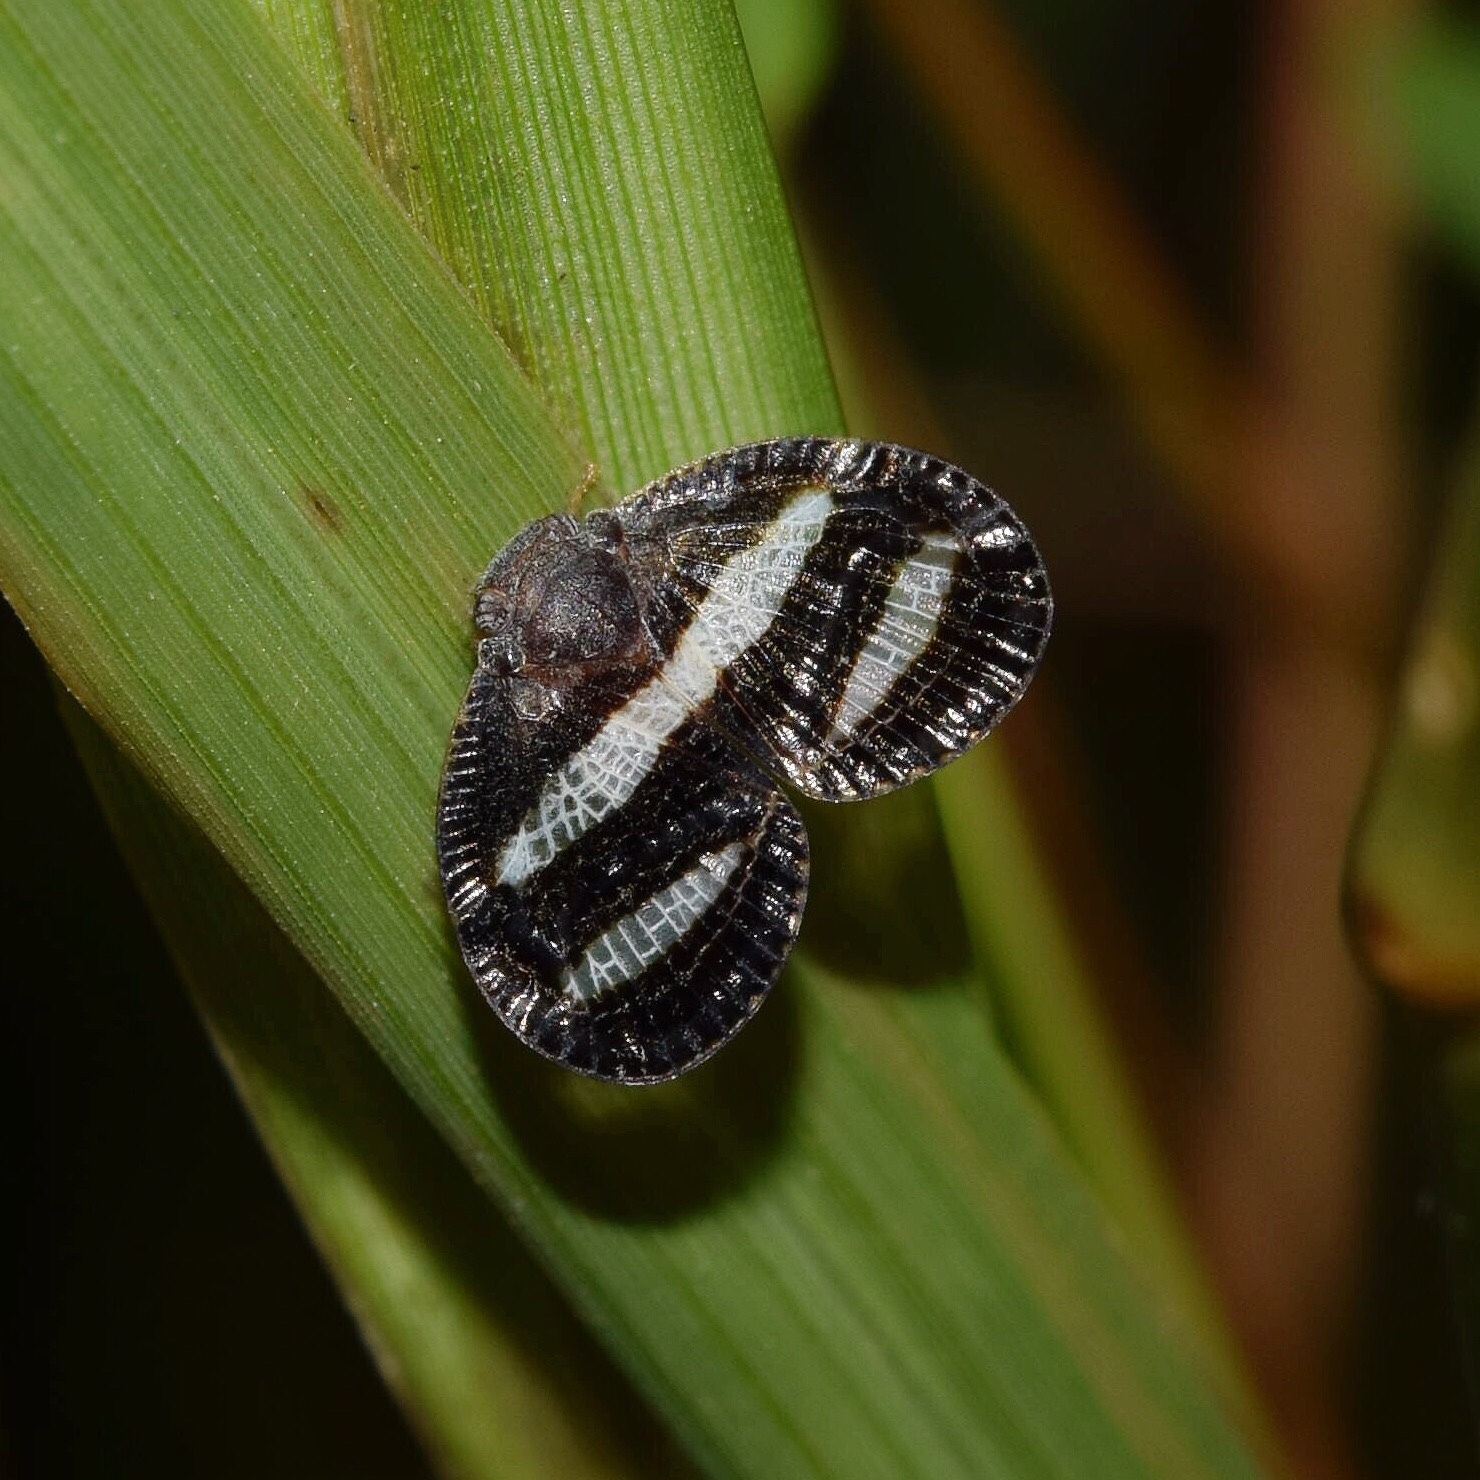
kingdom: Animalia
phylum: Arthropoda
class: Insecta
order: Hemiptera
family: Ricaniidae
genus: Mulvia
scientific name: Mulvia albizona
